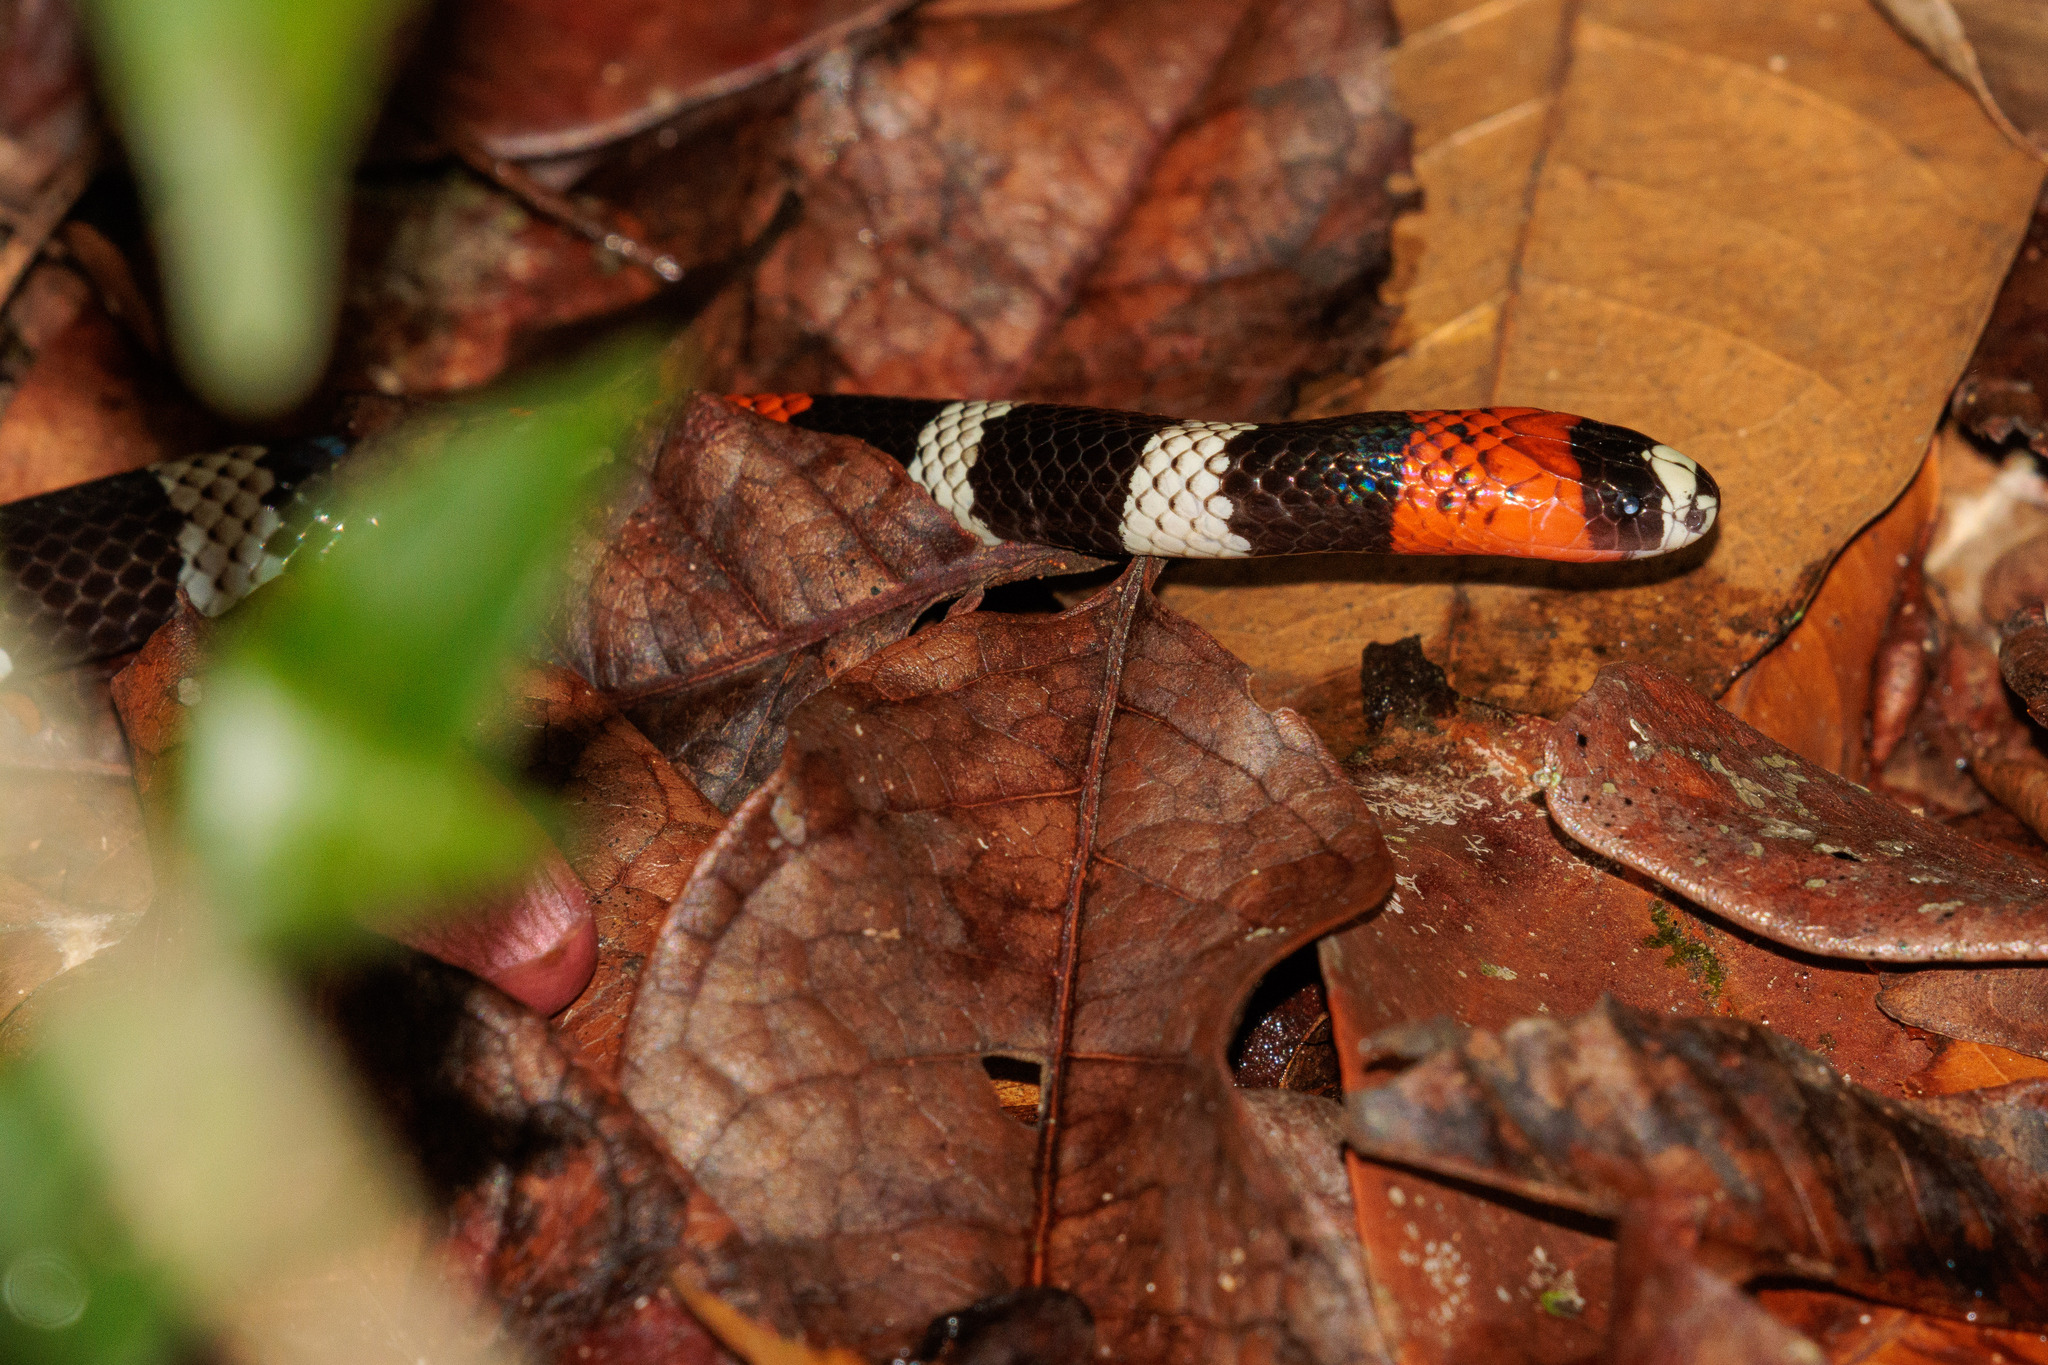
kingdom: Animalia
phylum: Chordata
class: Squamata
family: Elapidae
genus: Micrurus
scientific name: Micrurus ibiboboca
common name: Caatinga coral snake
